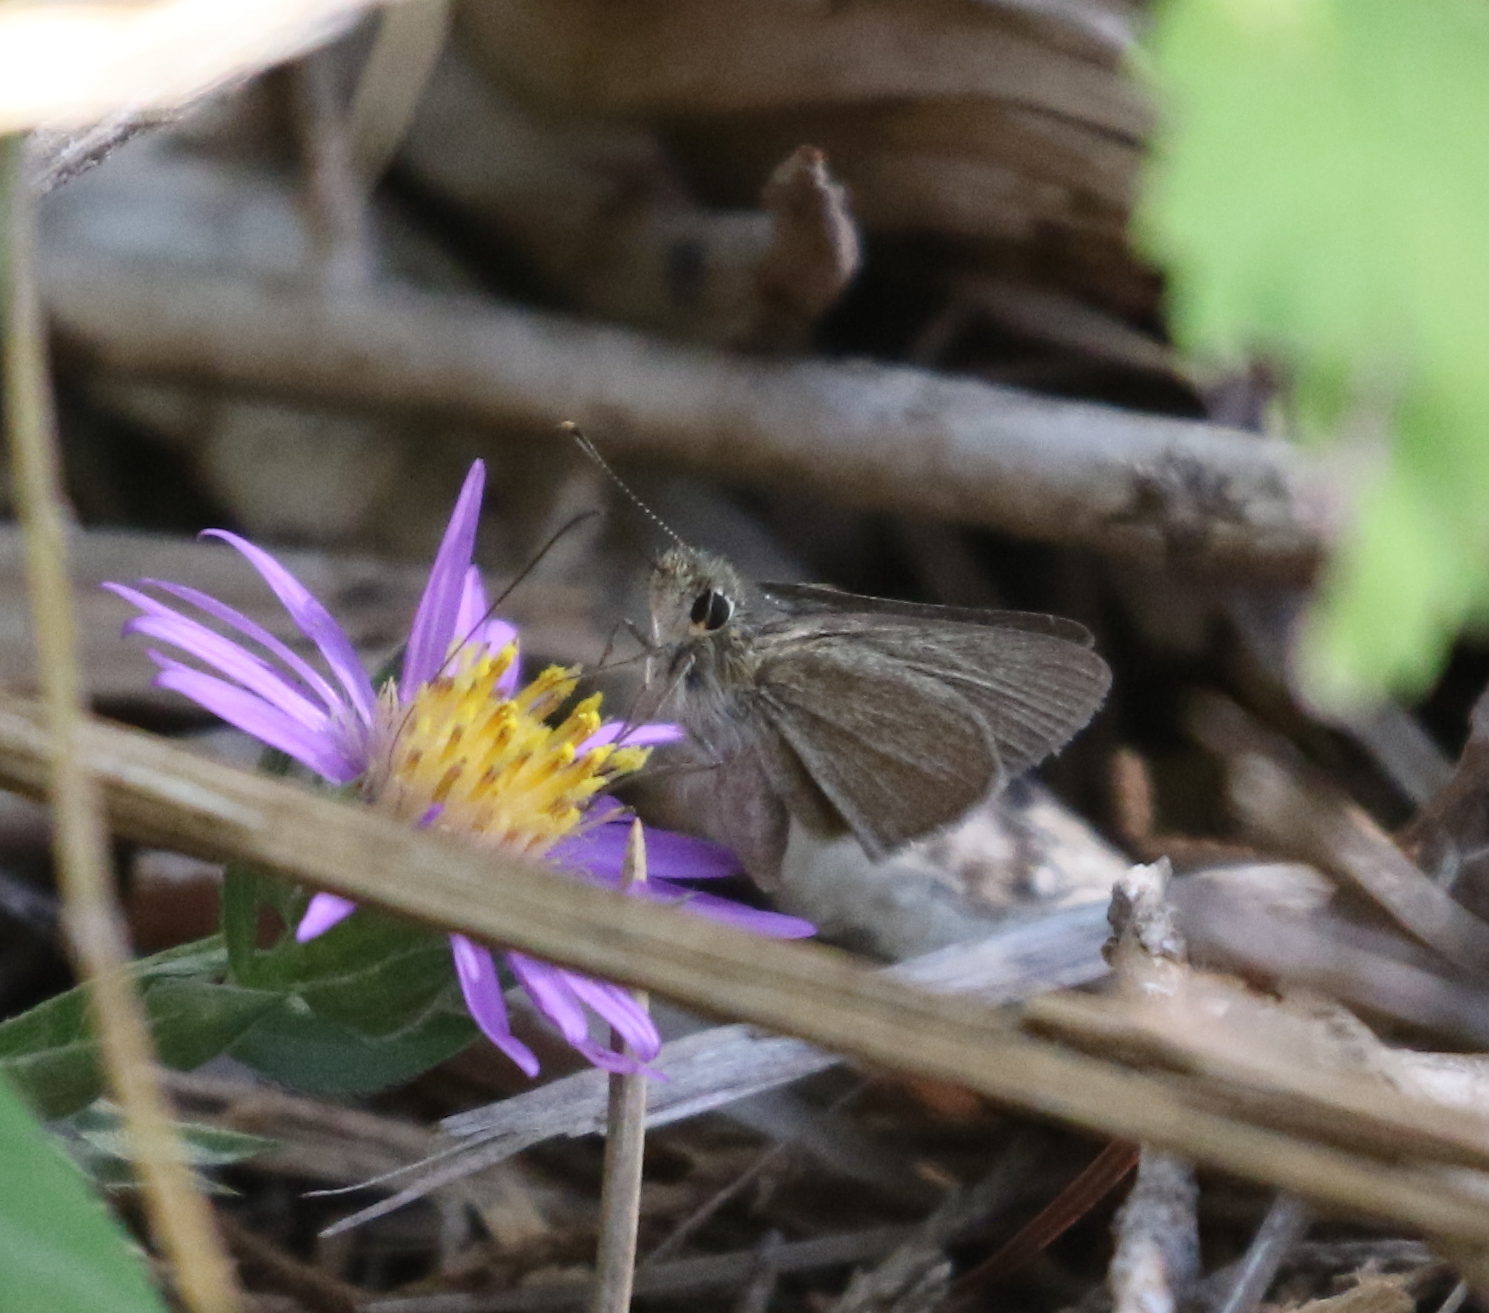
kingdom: Animalia
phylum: Arthropoda
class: Insecta
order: Lepidoptera
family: Hesperiidae
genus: Lerodea
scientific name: Lerodea eufala
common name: Eufala skipper
